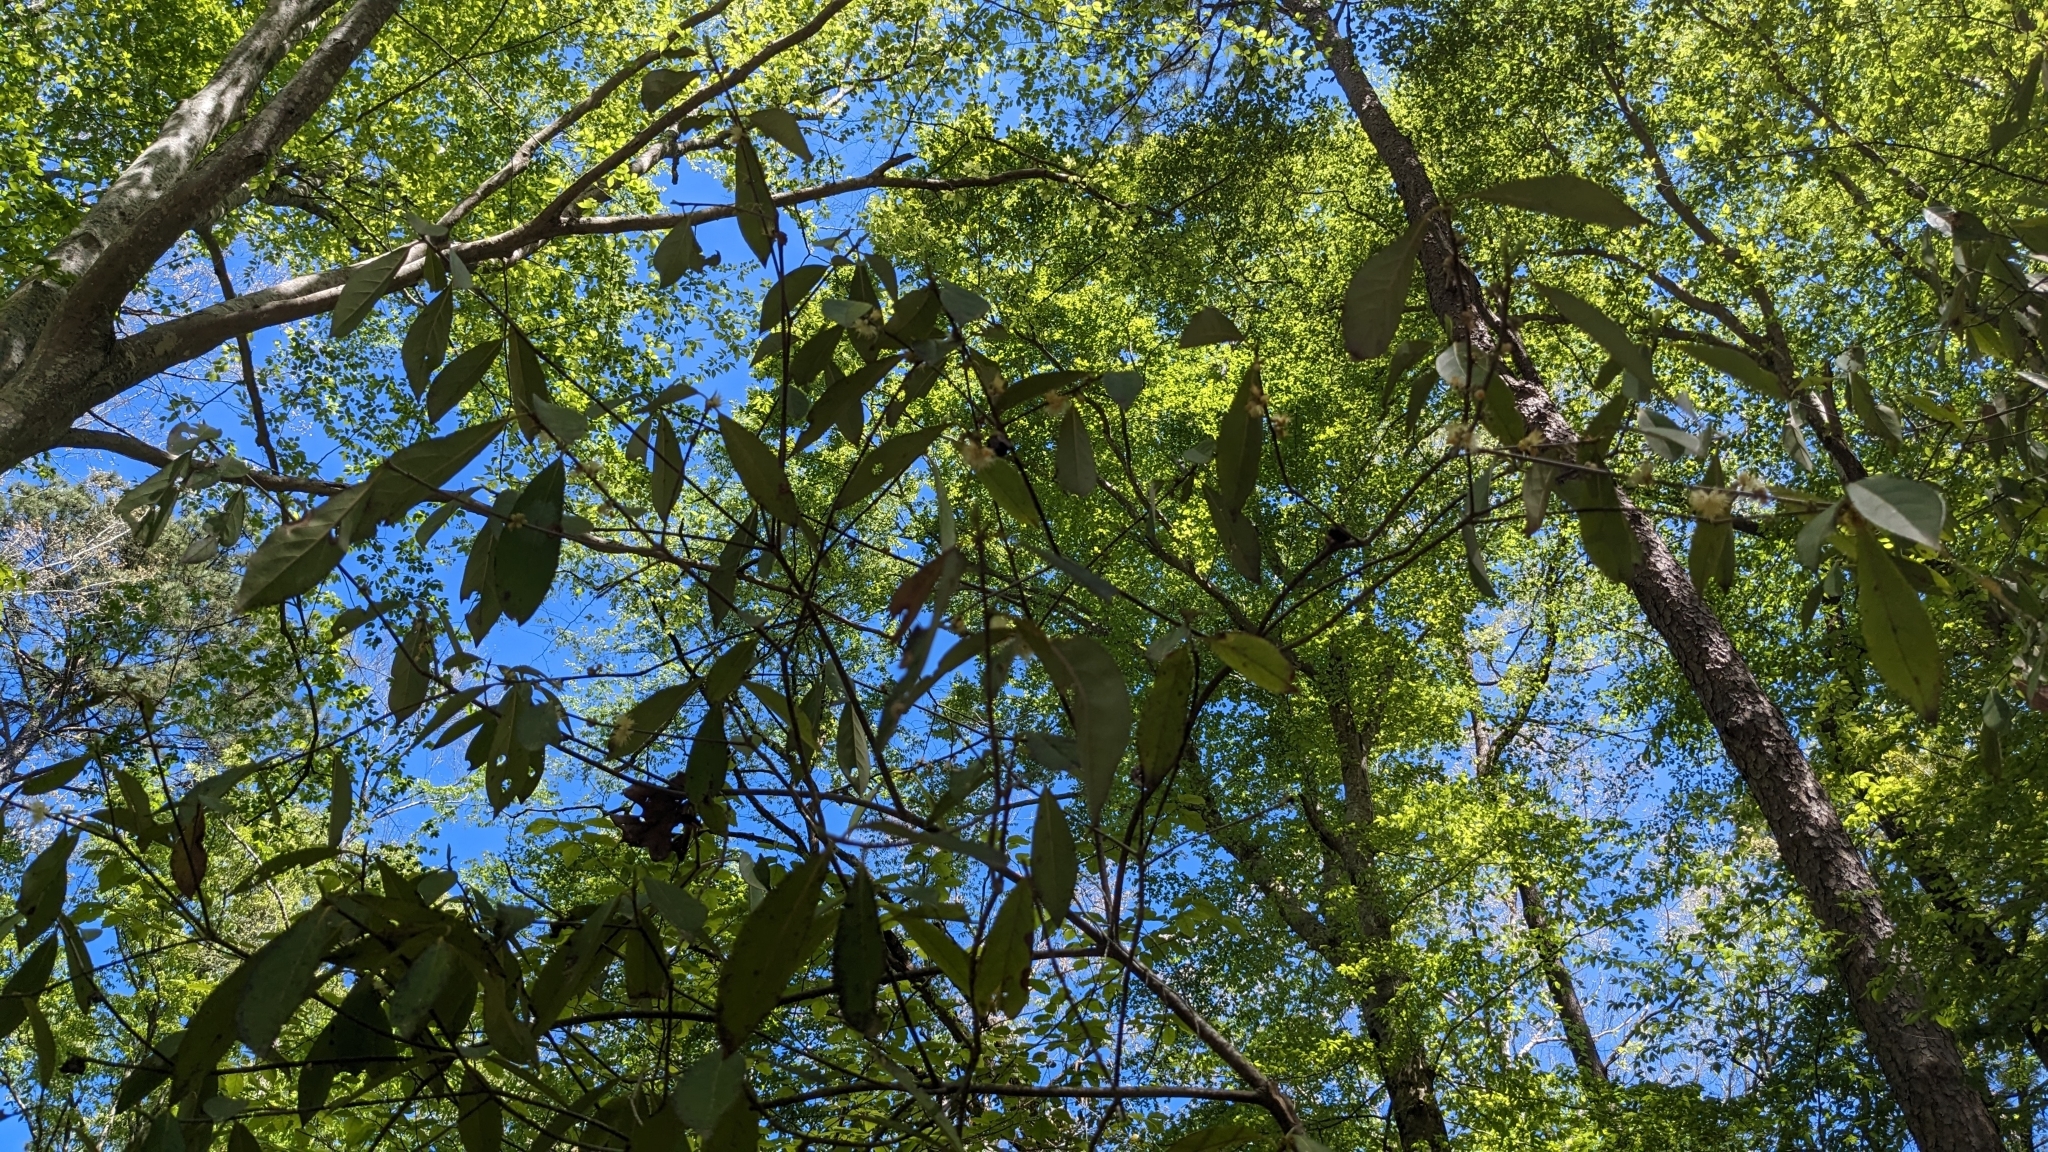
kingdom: Plantae
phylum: Tracheophyta
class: Magnoliopsida
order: Ericales
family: Symplocaceae
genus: Symplocos
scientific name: Symplocos tinctoria
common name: Horse-sugar
